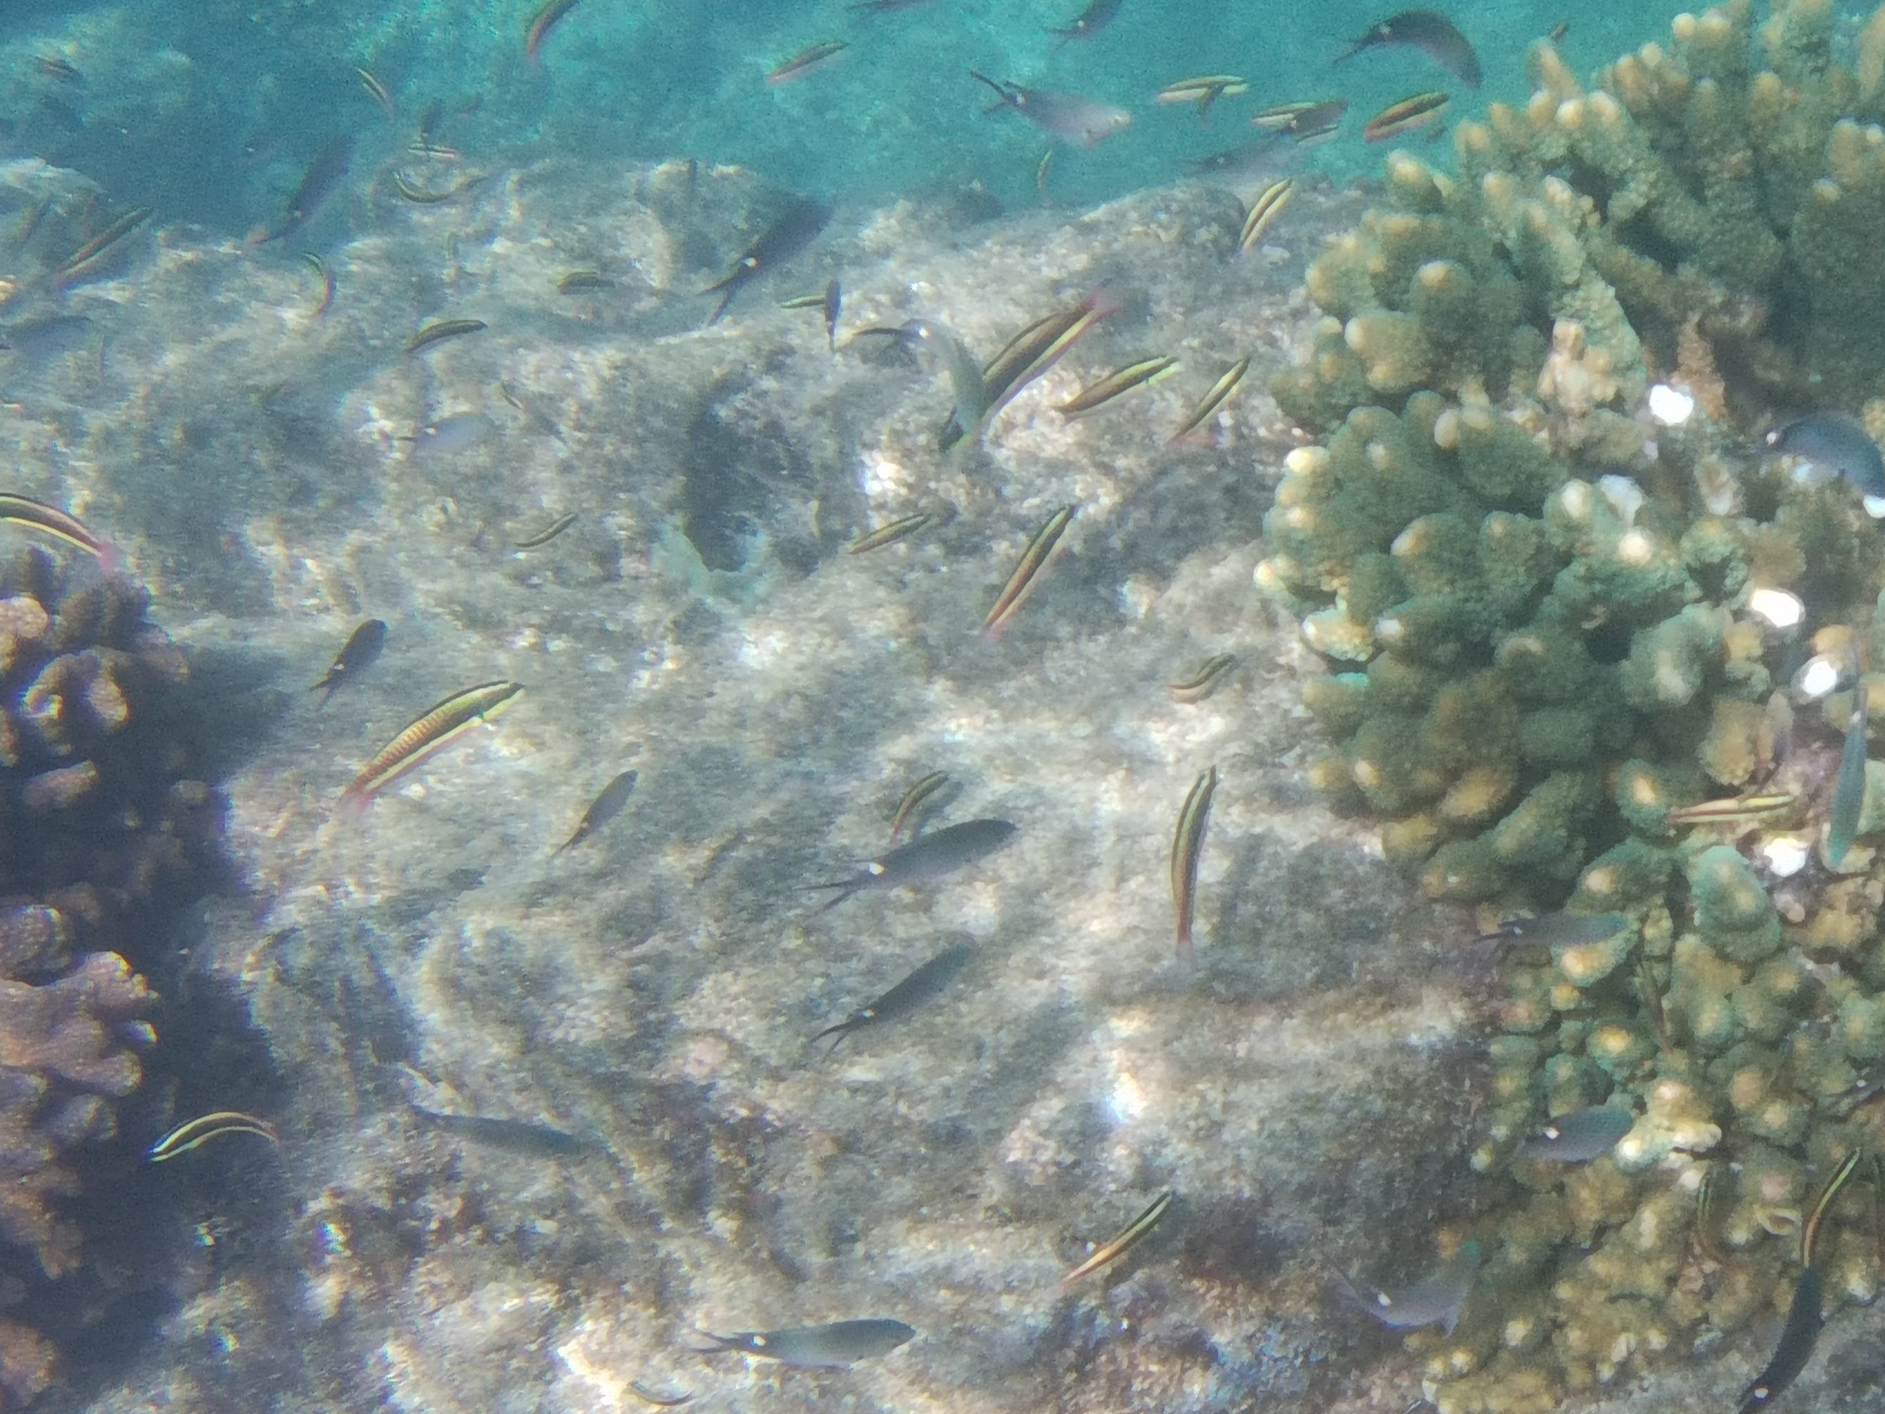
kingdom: Animalia
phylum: Chordata
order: Perciformes
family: Labridae
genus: Thalassoma
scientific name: Thalassoma lucasanum
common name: Cortez rainbow wrasse
